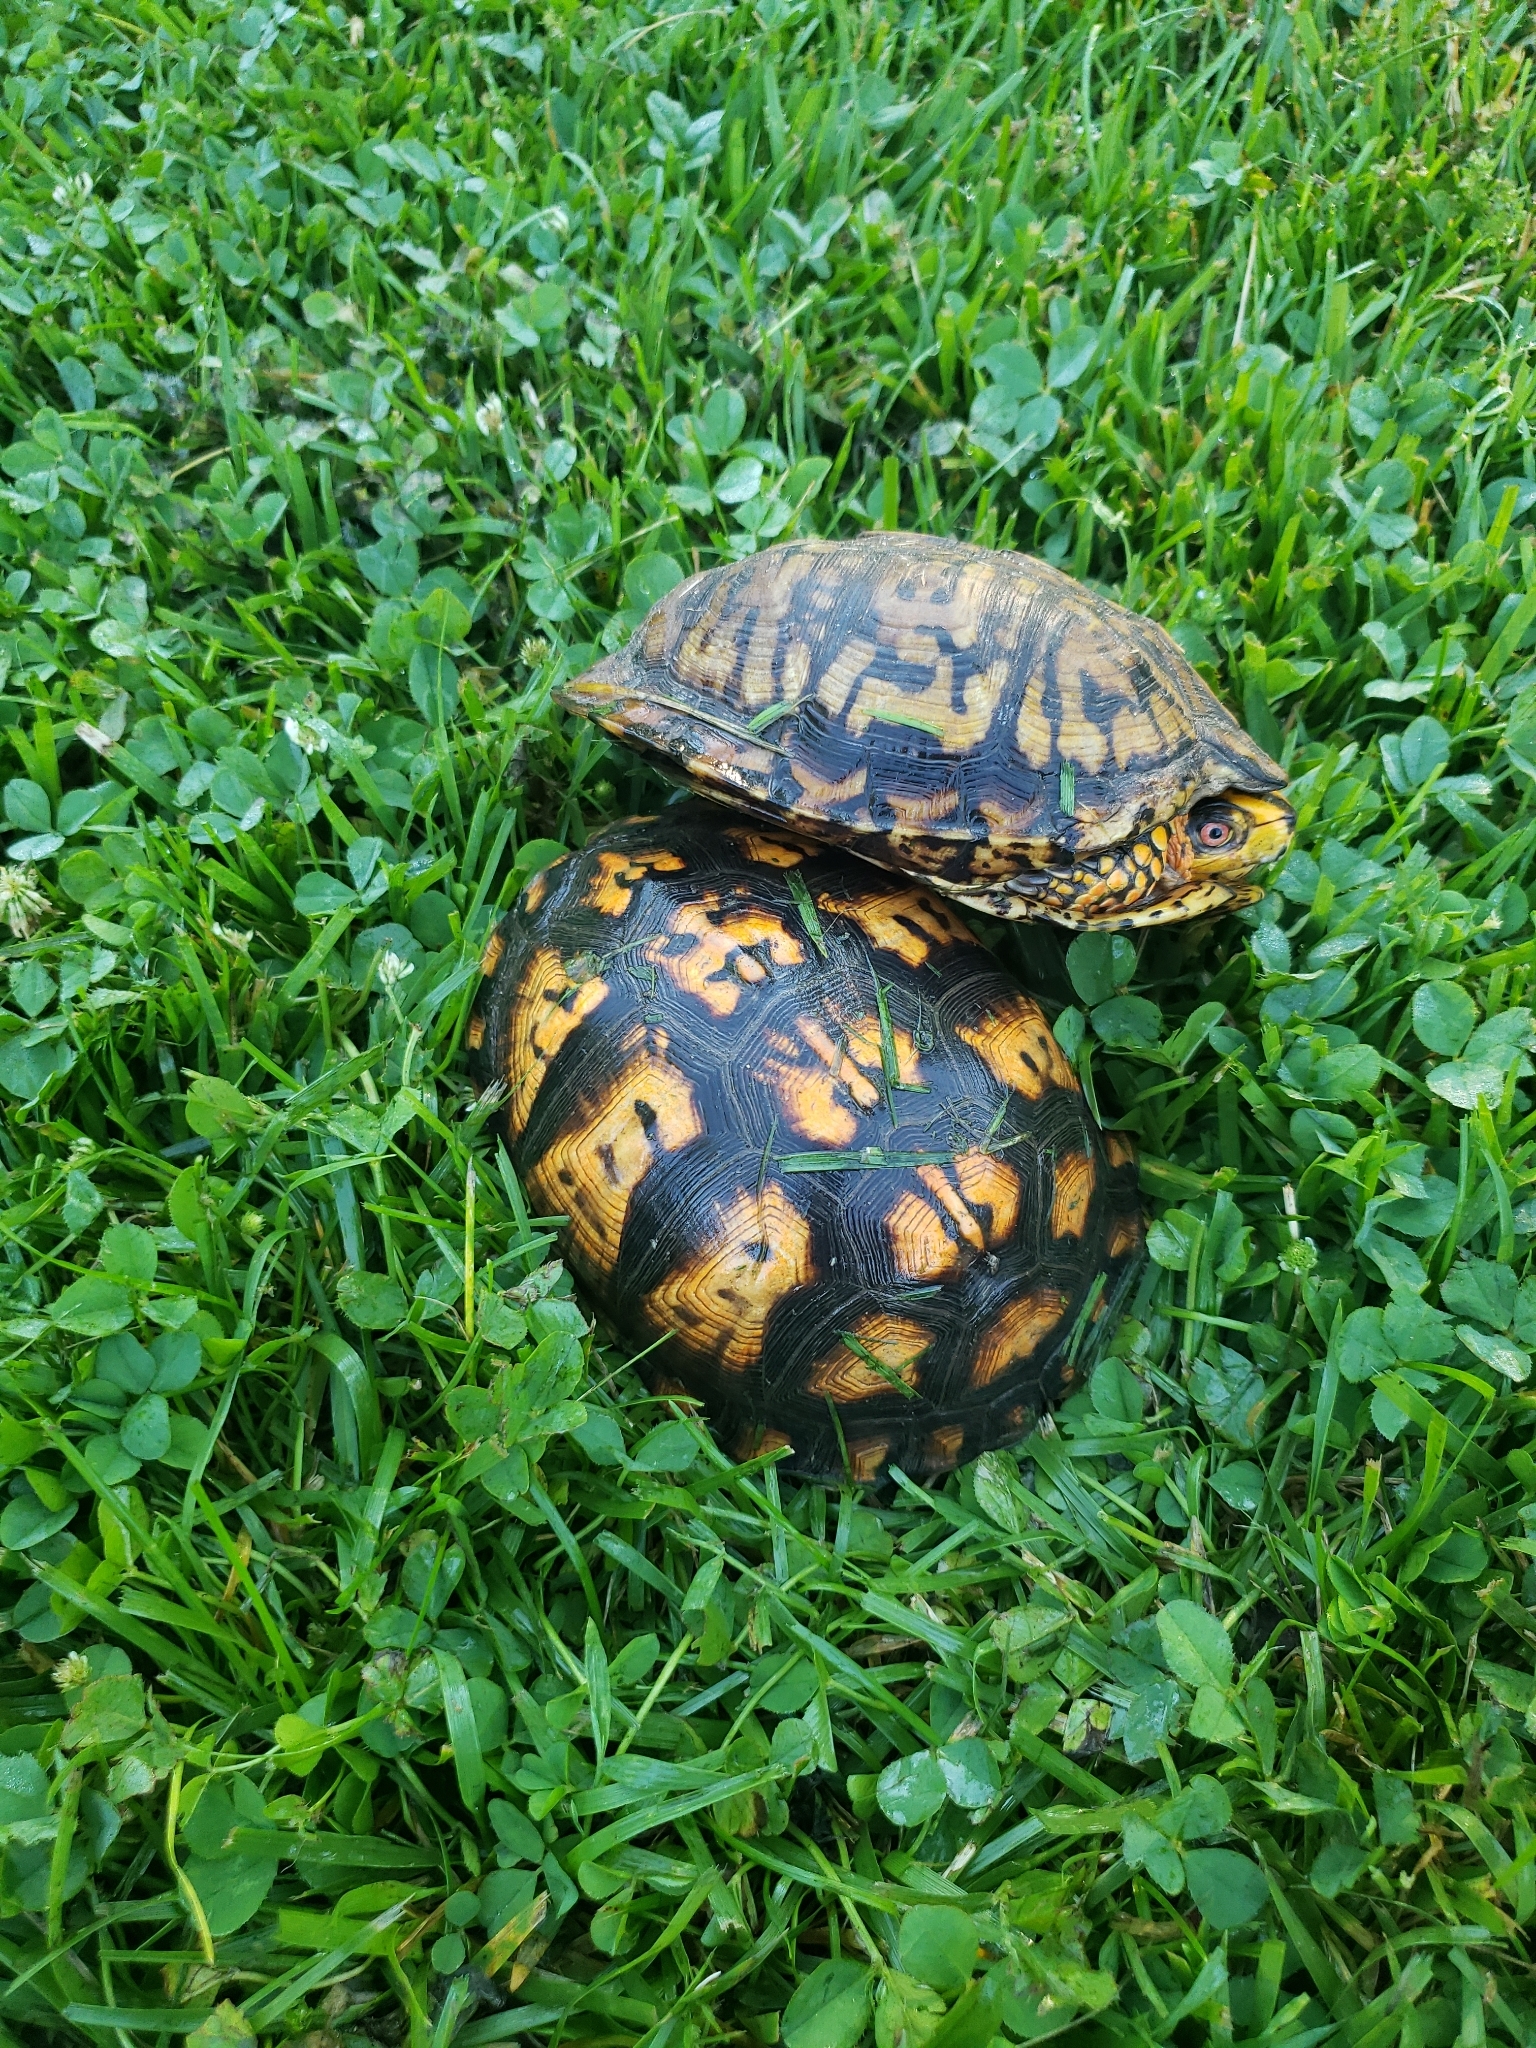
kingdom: Animalia
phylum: Chordata
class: Testudines
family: Emydidae
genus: Terrapene
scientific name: Terrapene carolina
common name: Common box turtle
